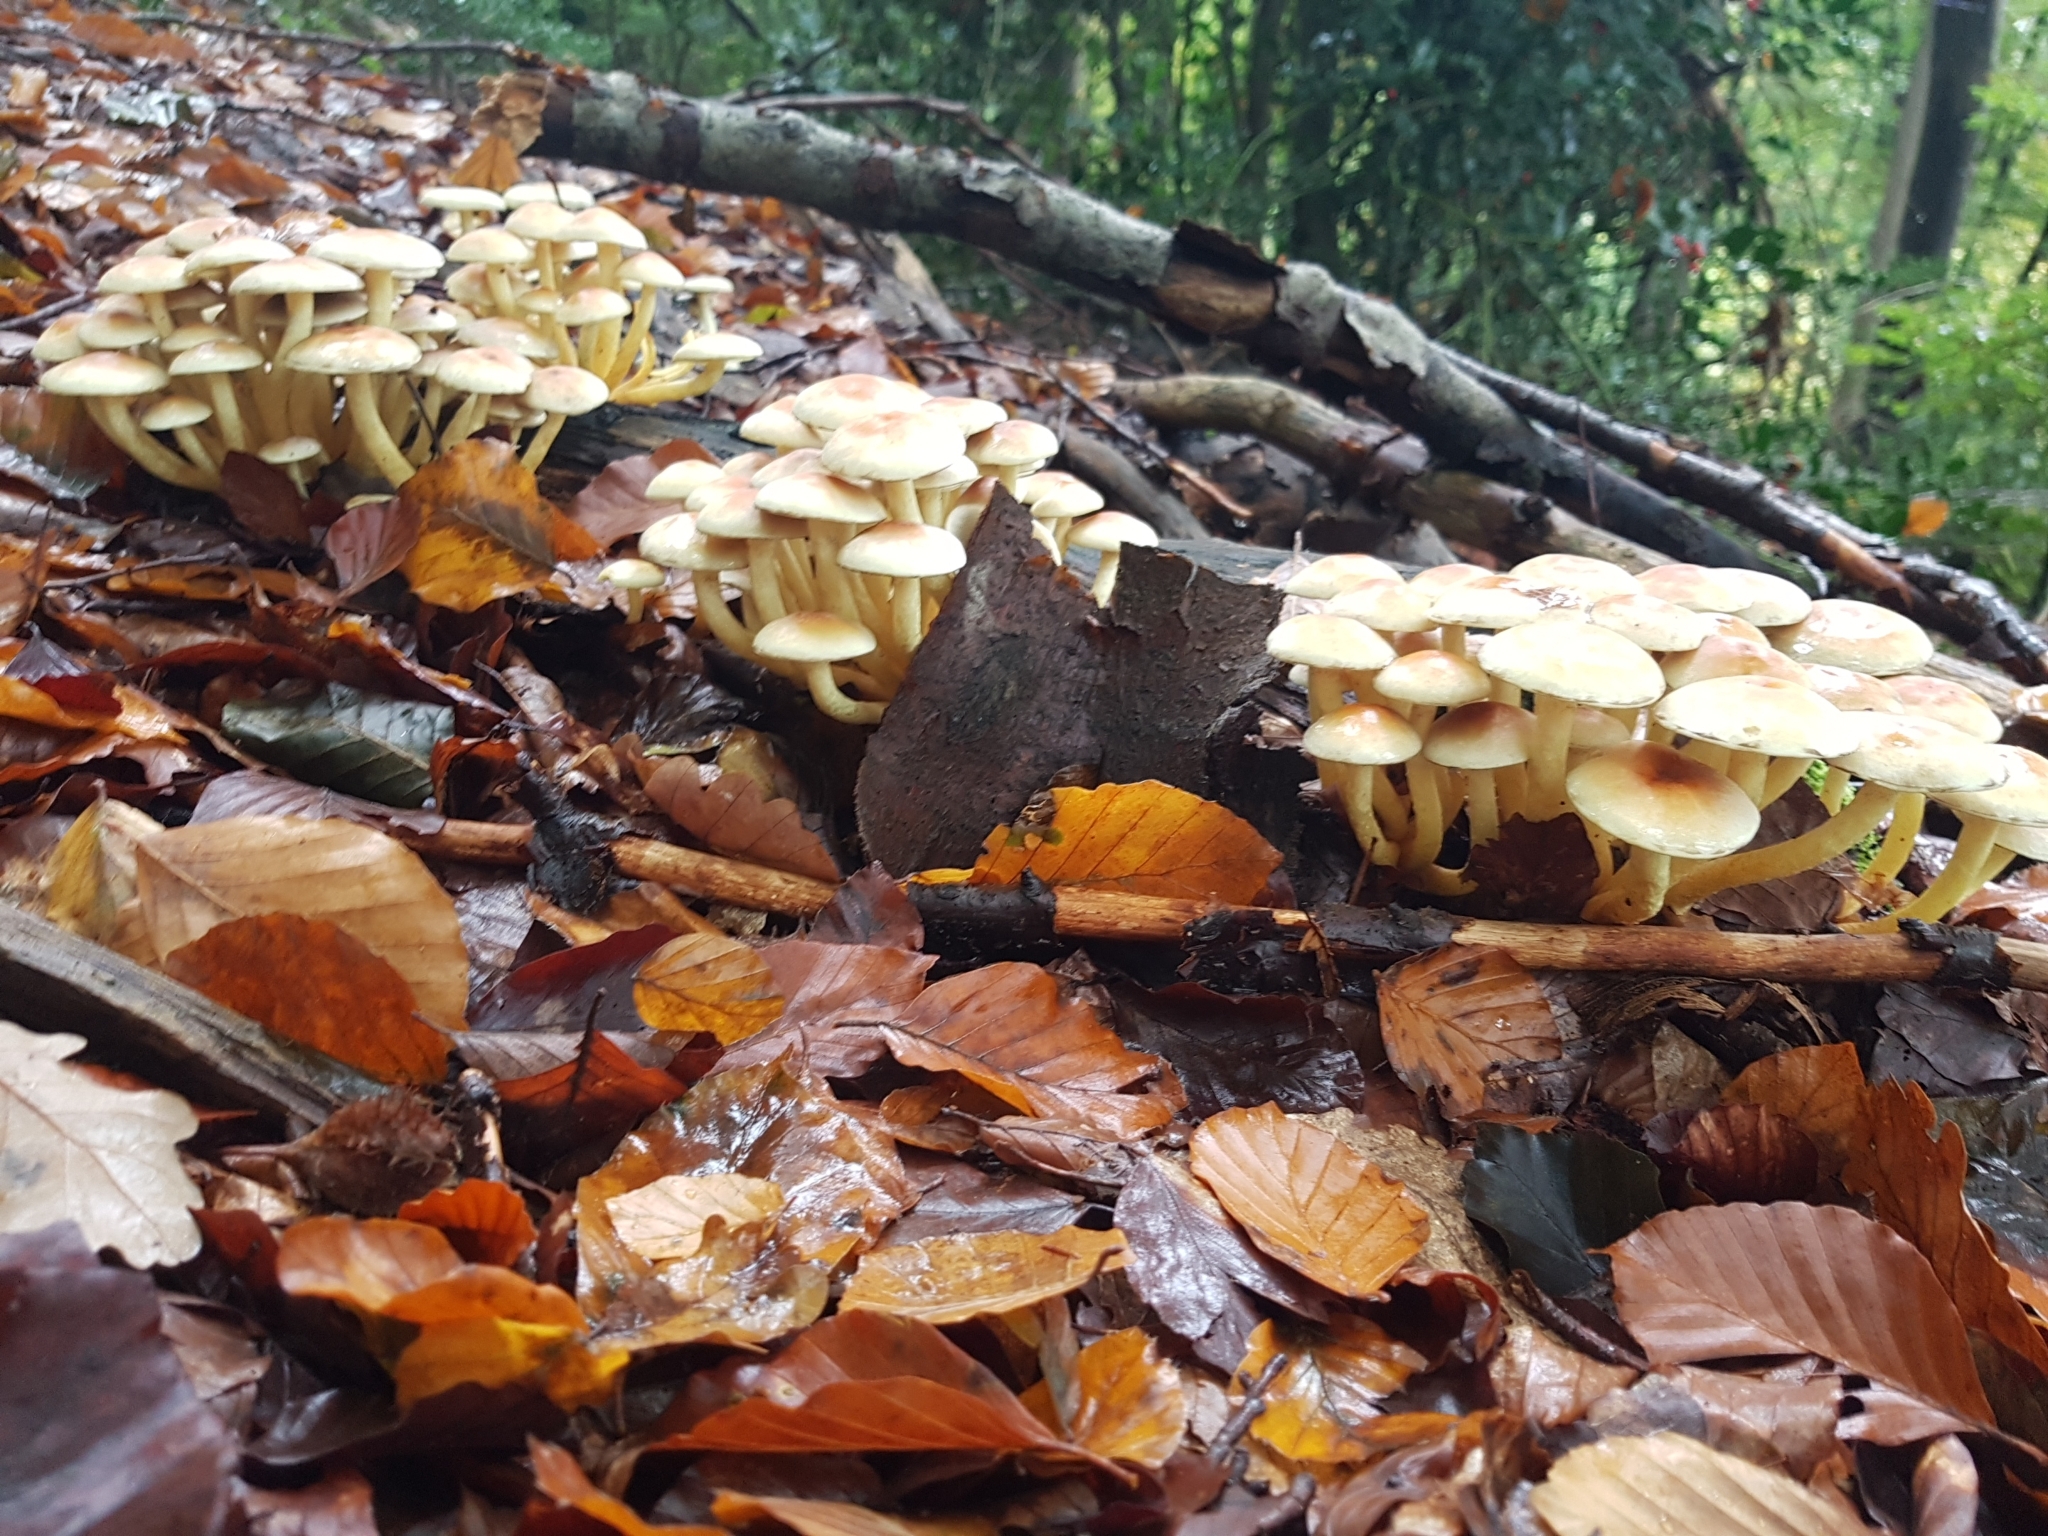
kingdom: Fungi
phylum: Basidiomycota
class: Agaricomycetes
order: Agaricales
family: Strophariaceae
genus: Hypholoma
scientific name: Hypholoma fasciculare
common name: Sulphur tuft
